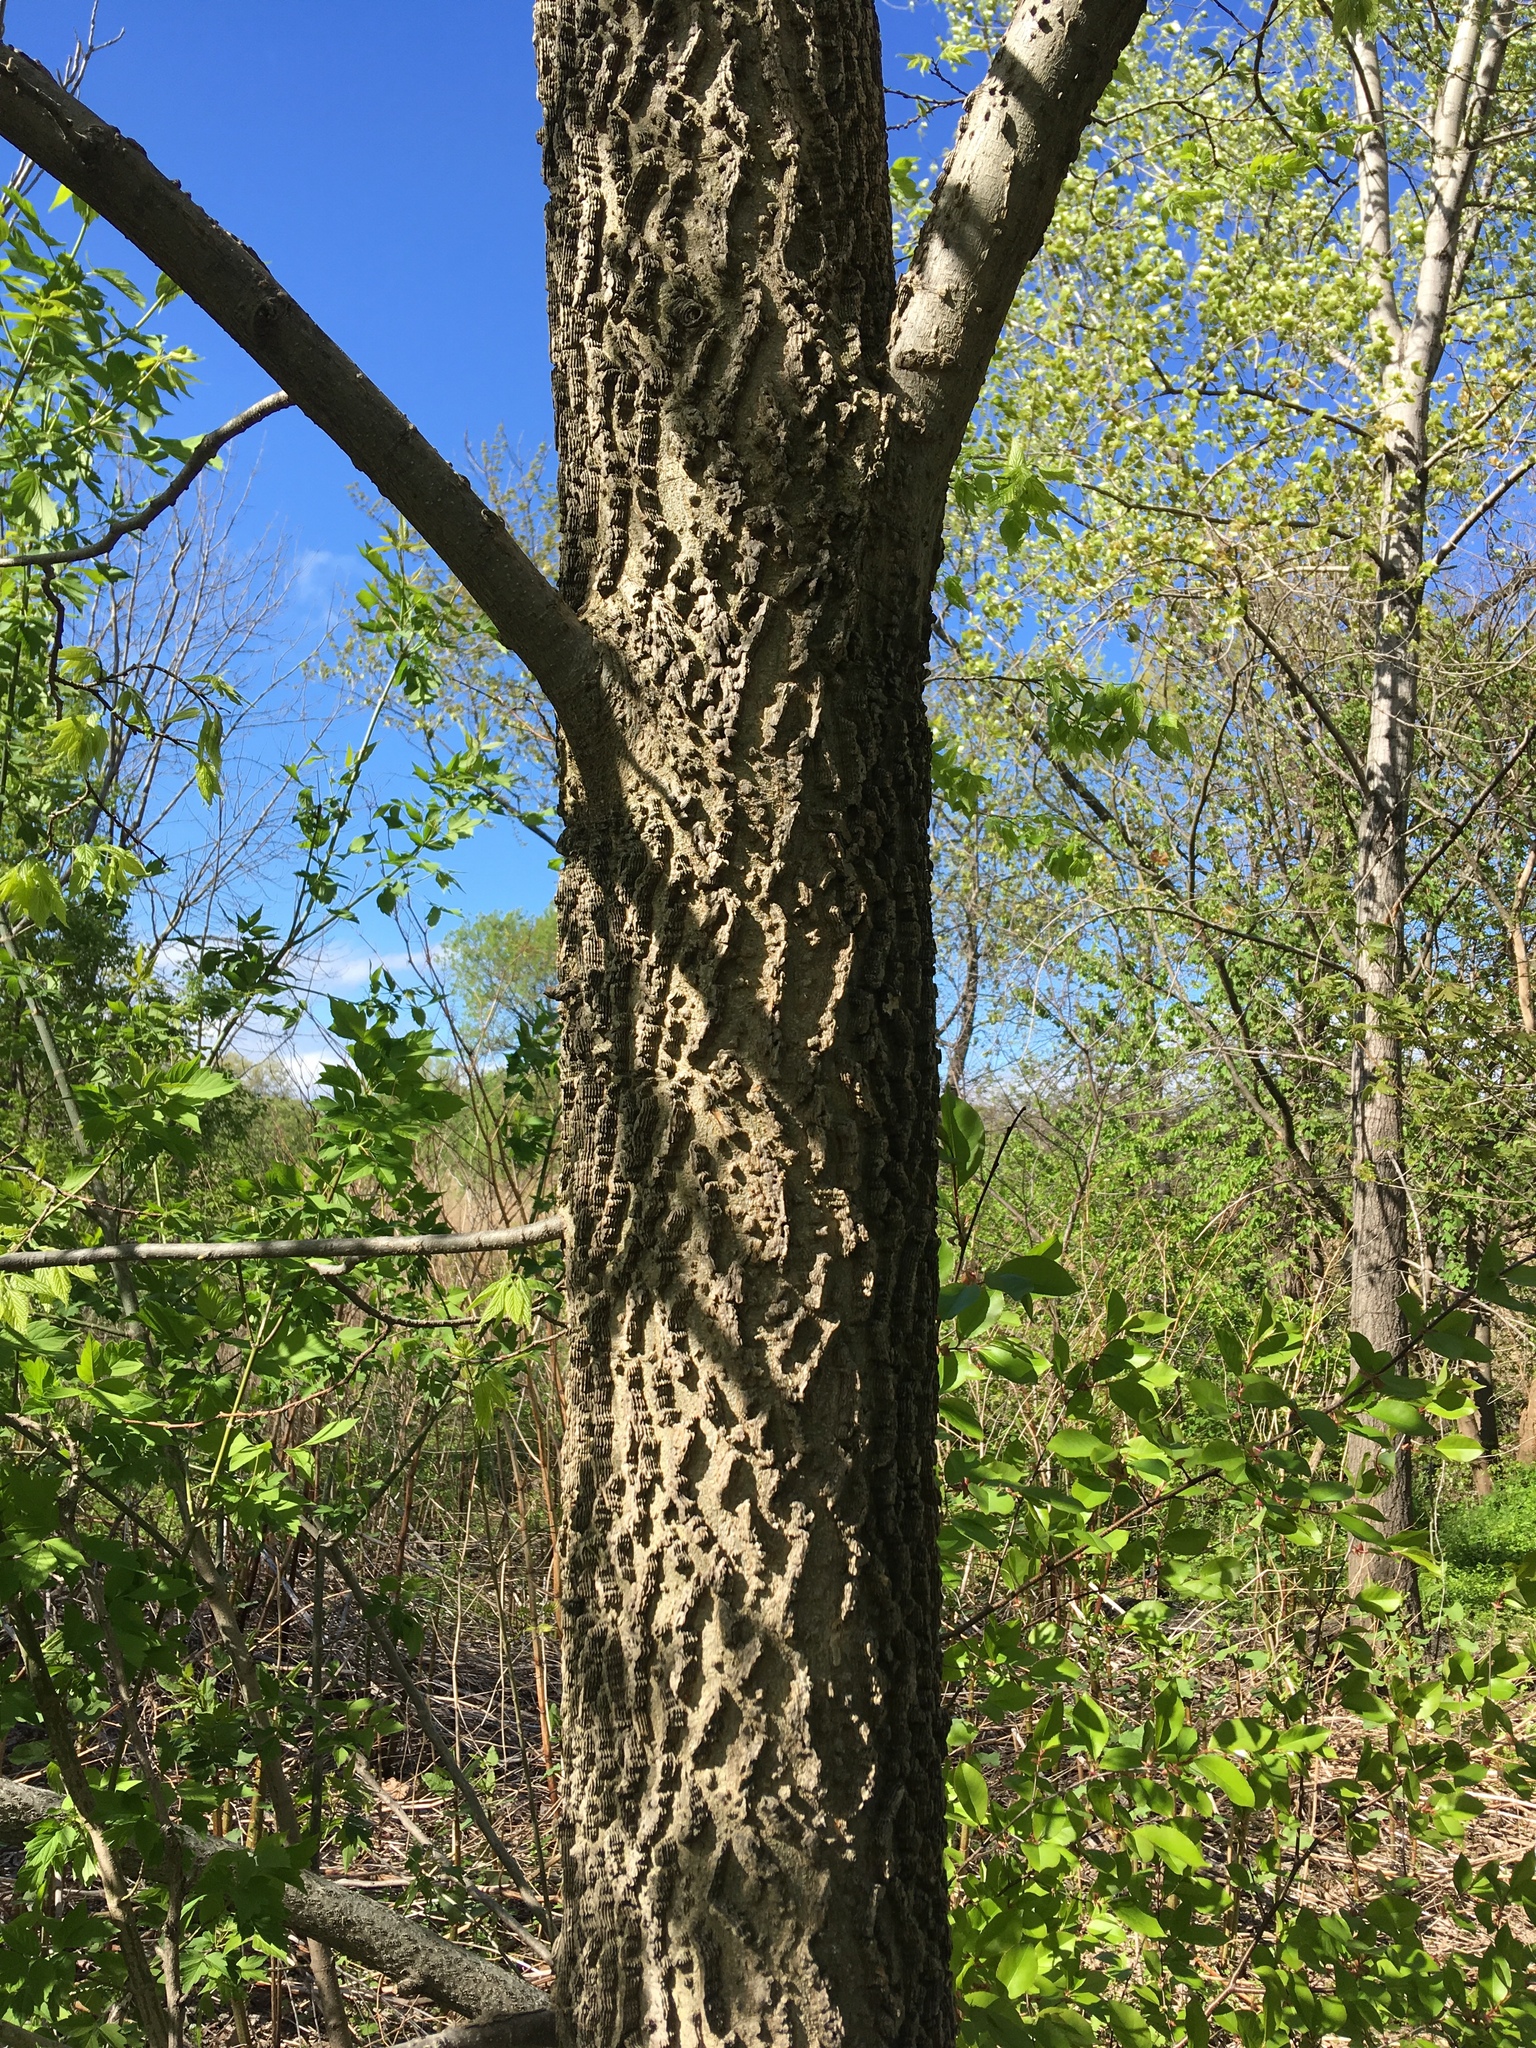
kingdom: Plantae
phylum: Tracheophyta
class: Magnoliopsida
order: Rosales
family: Cannabaceae
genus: Celtis
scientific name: Celtis occidentalis
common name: Common hackberry
